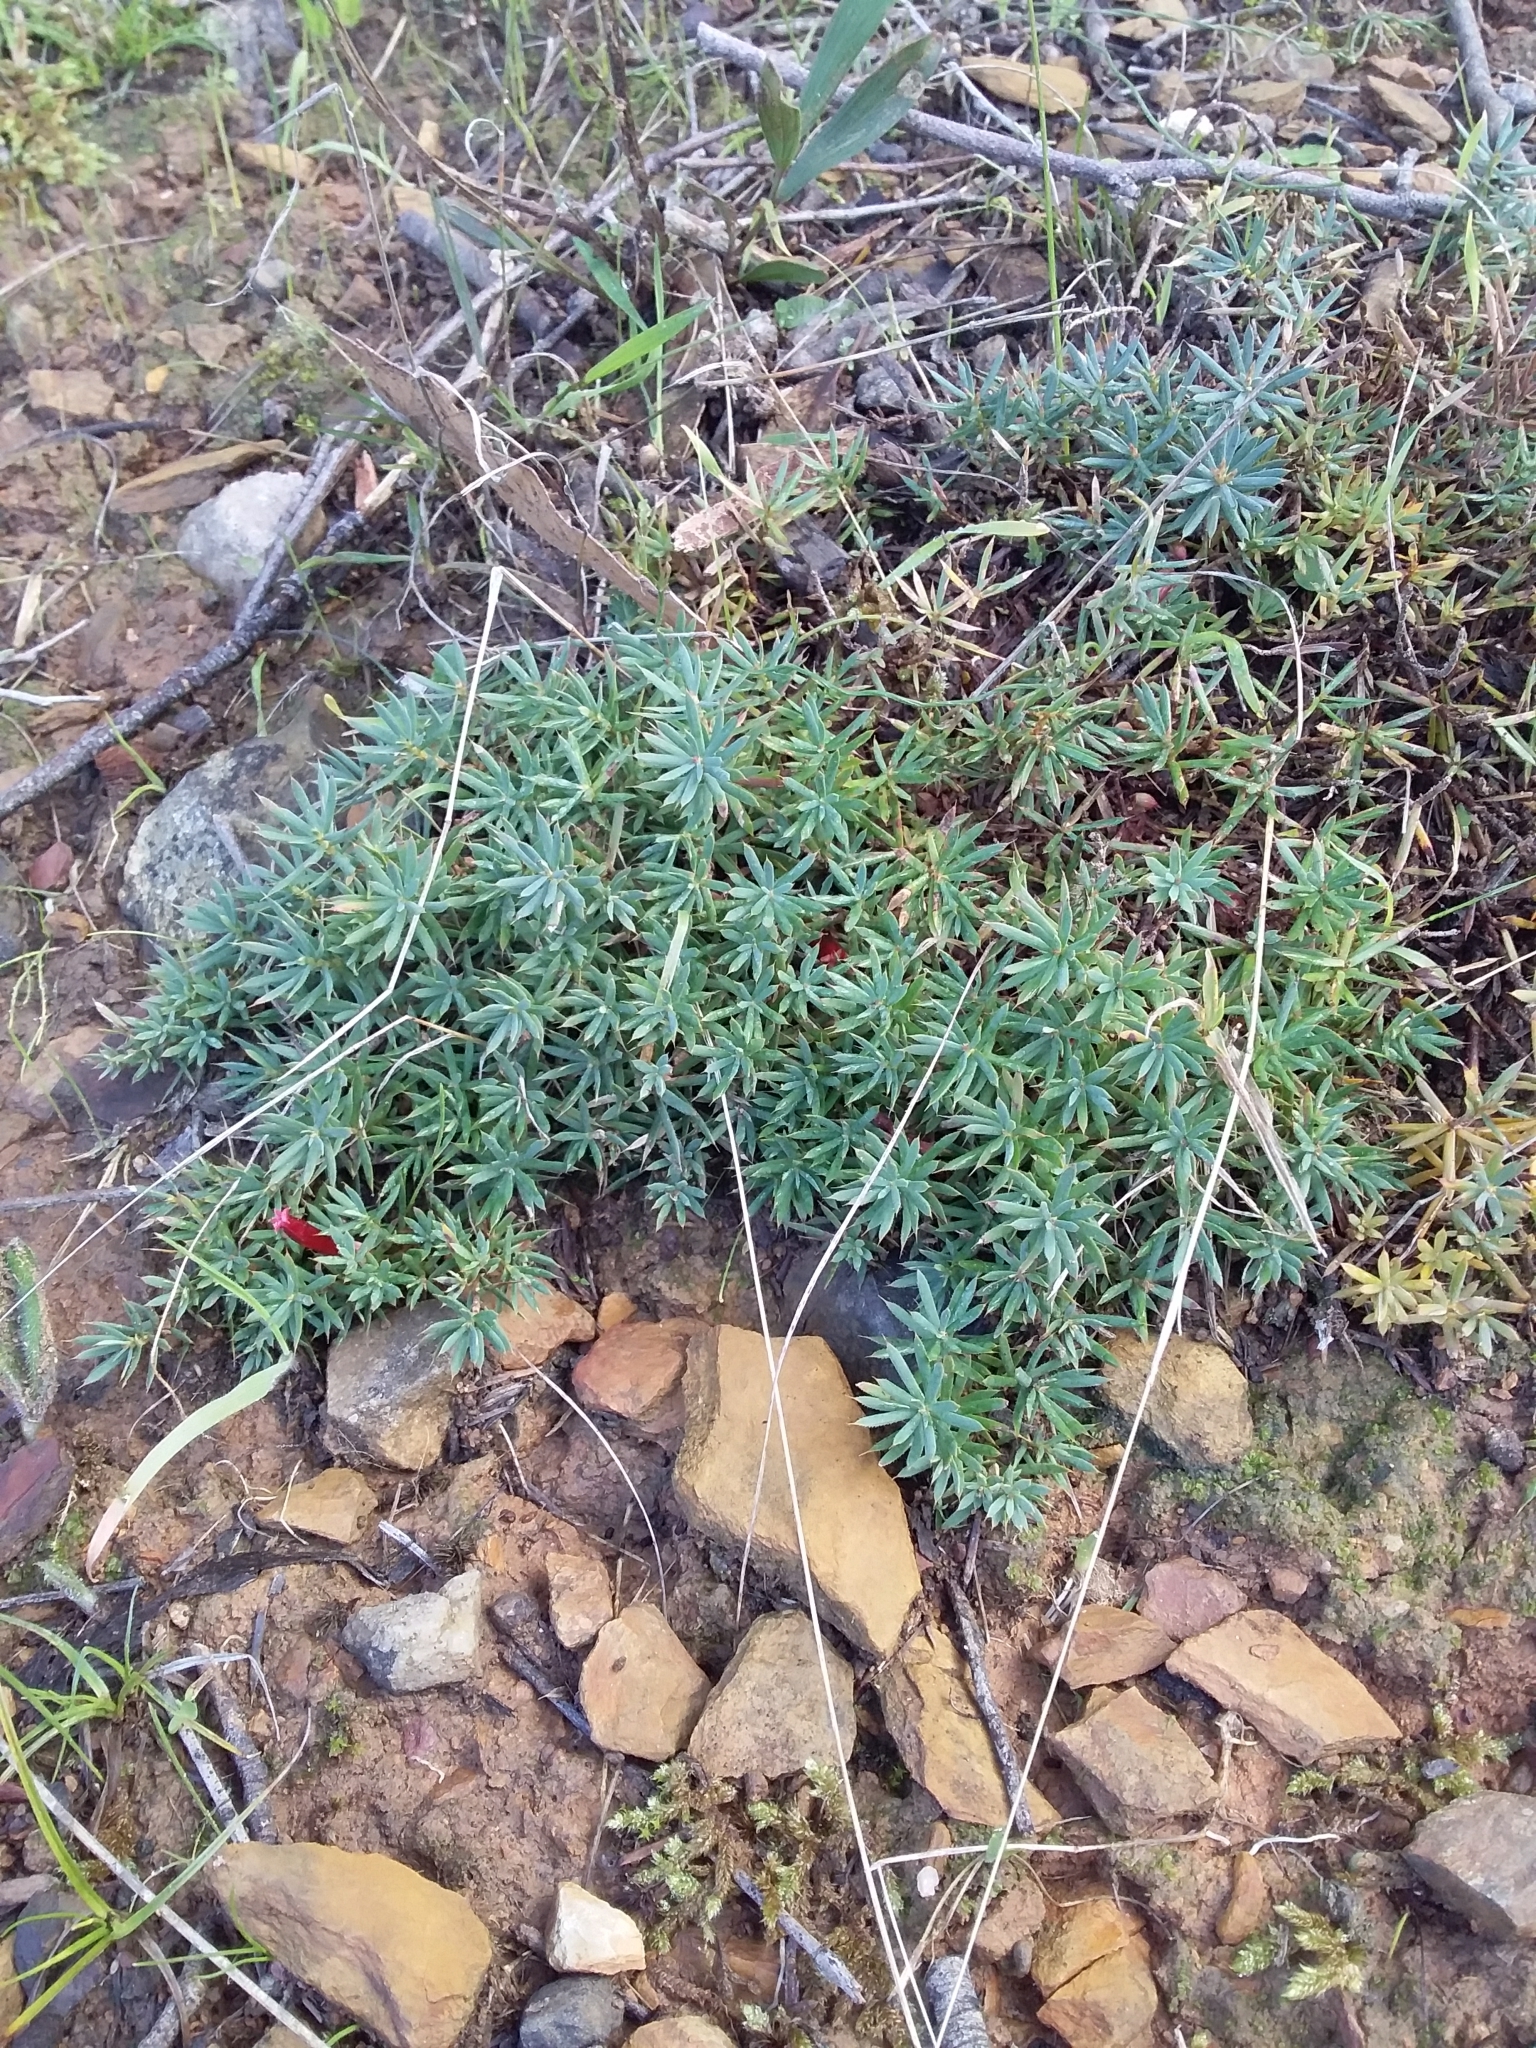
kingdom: Plantae
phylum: Tracheophyta
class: Magnoliopsida
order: Ericales
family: Ericaceae
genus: Styphelia
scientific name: Styphelia humifusa
